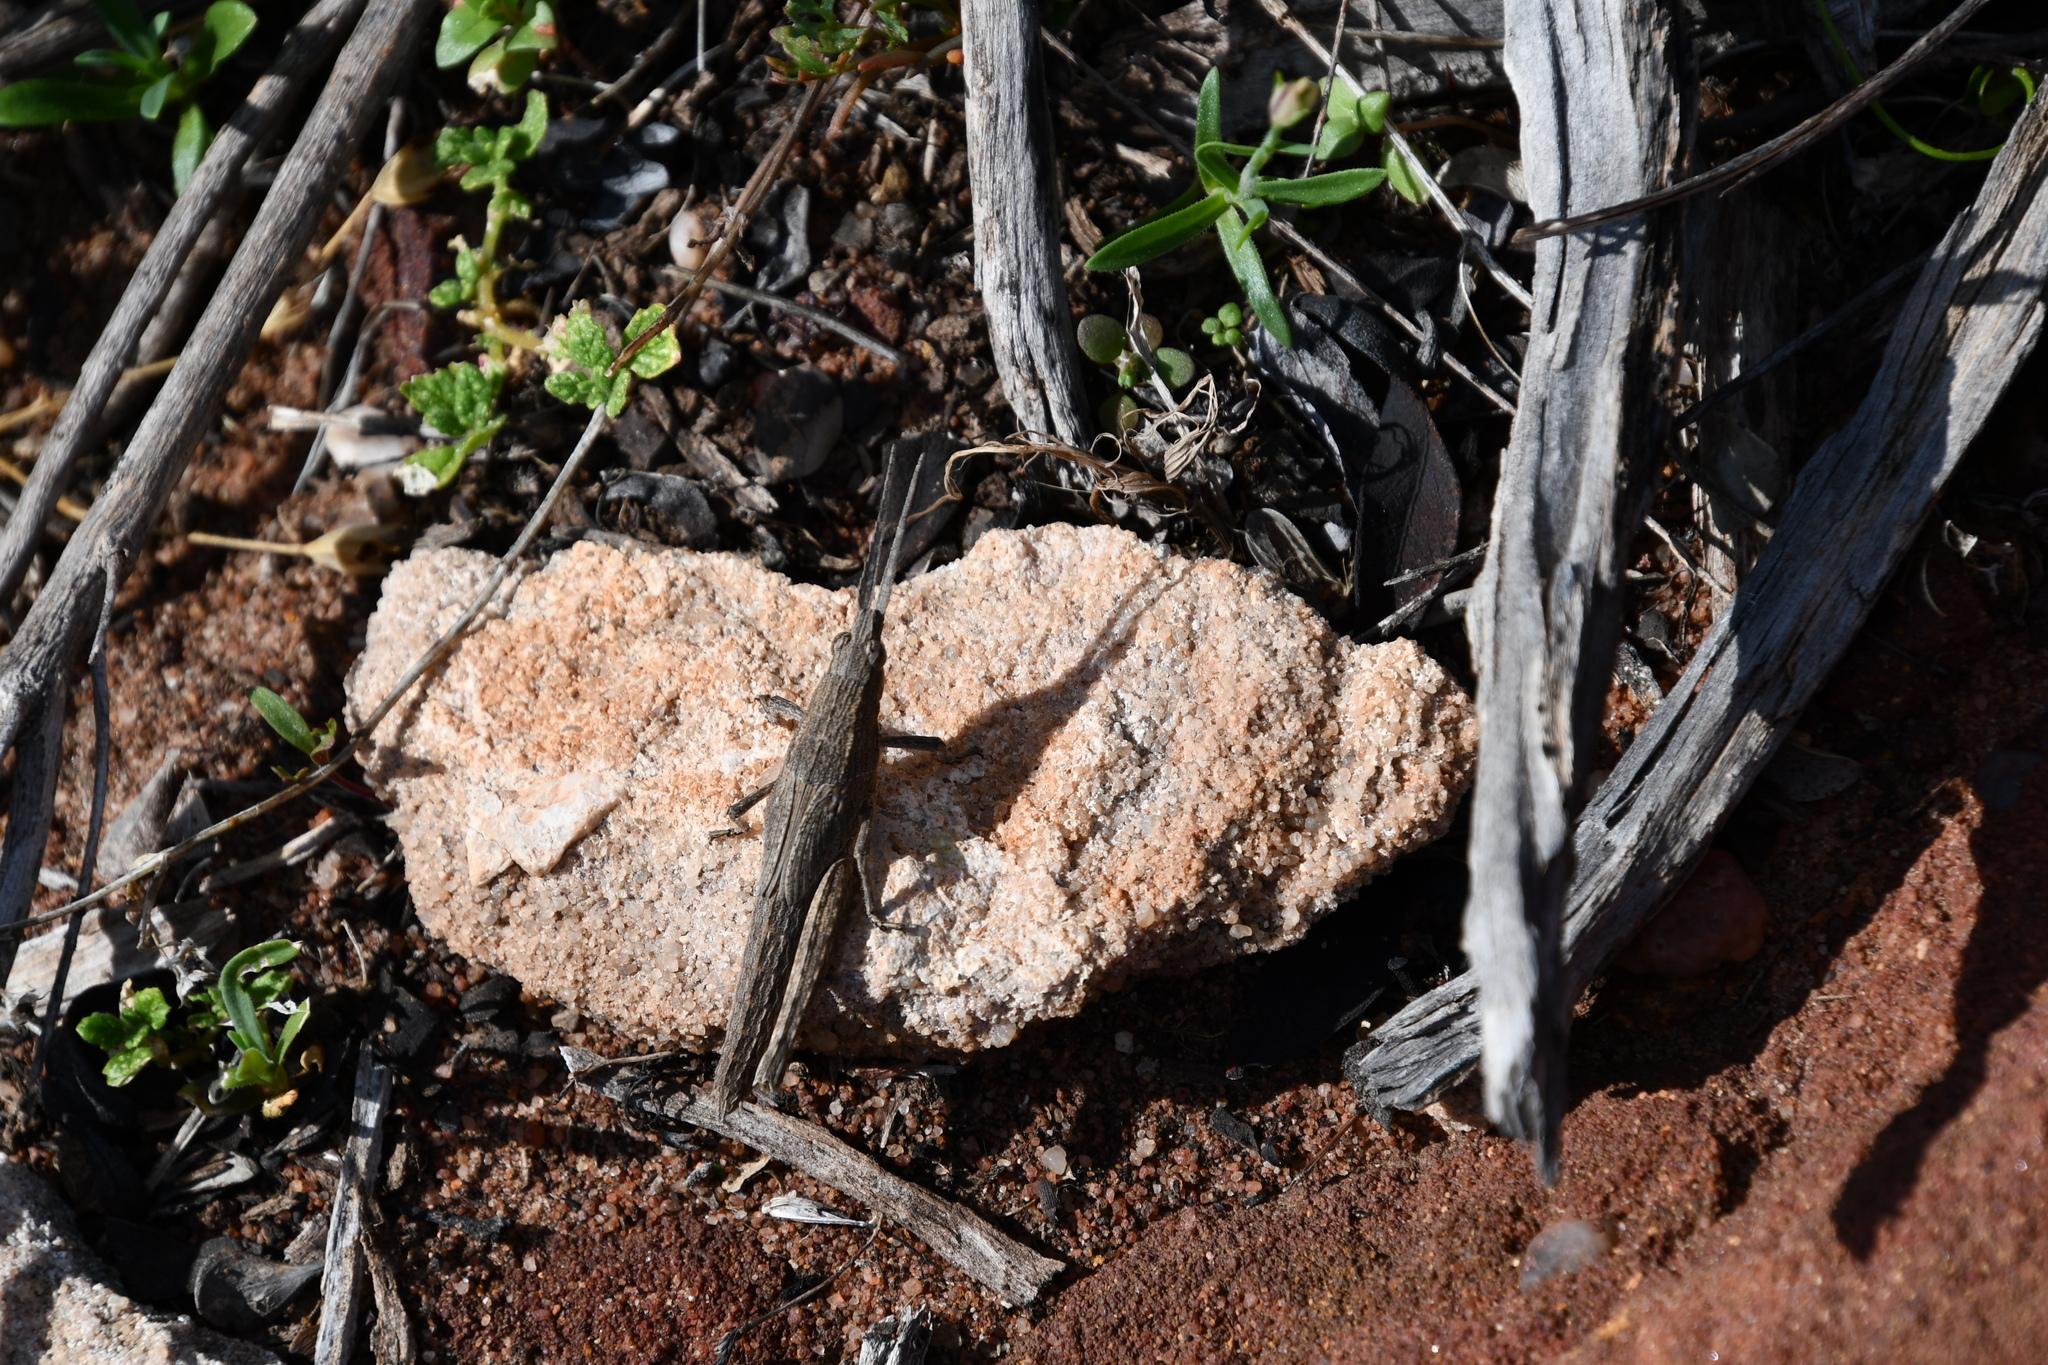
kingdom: Animalia
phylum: Arthropoda
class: Insecta
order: Orthoptera
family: Acrididae
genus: Coryphistes
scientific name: Coryphistes ruricola
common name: Bark-mimicking grasshopper
